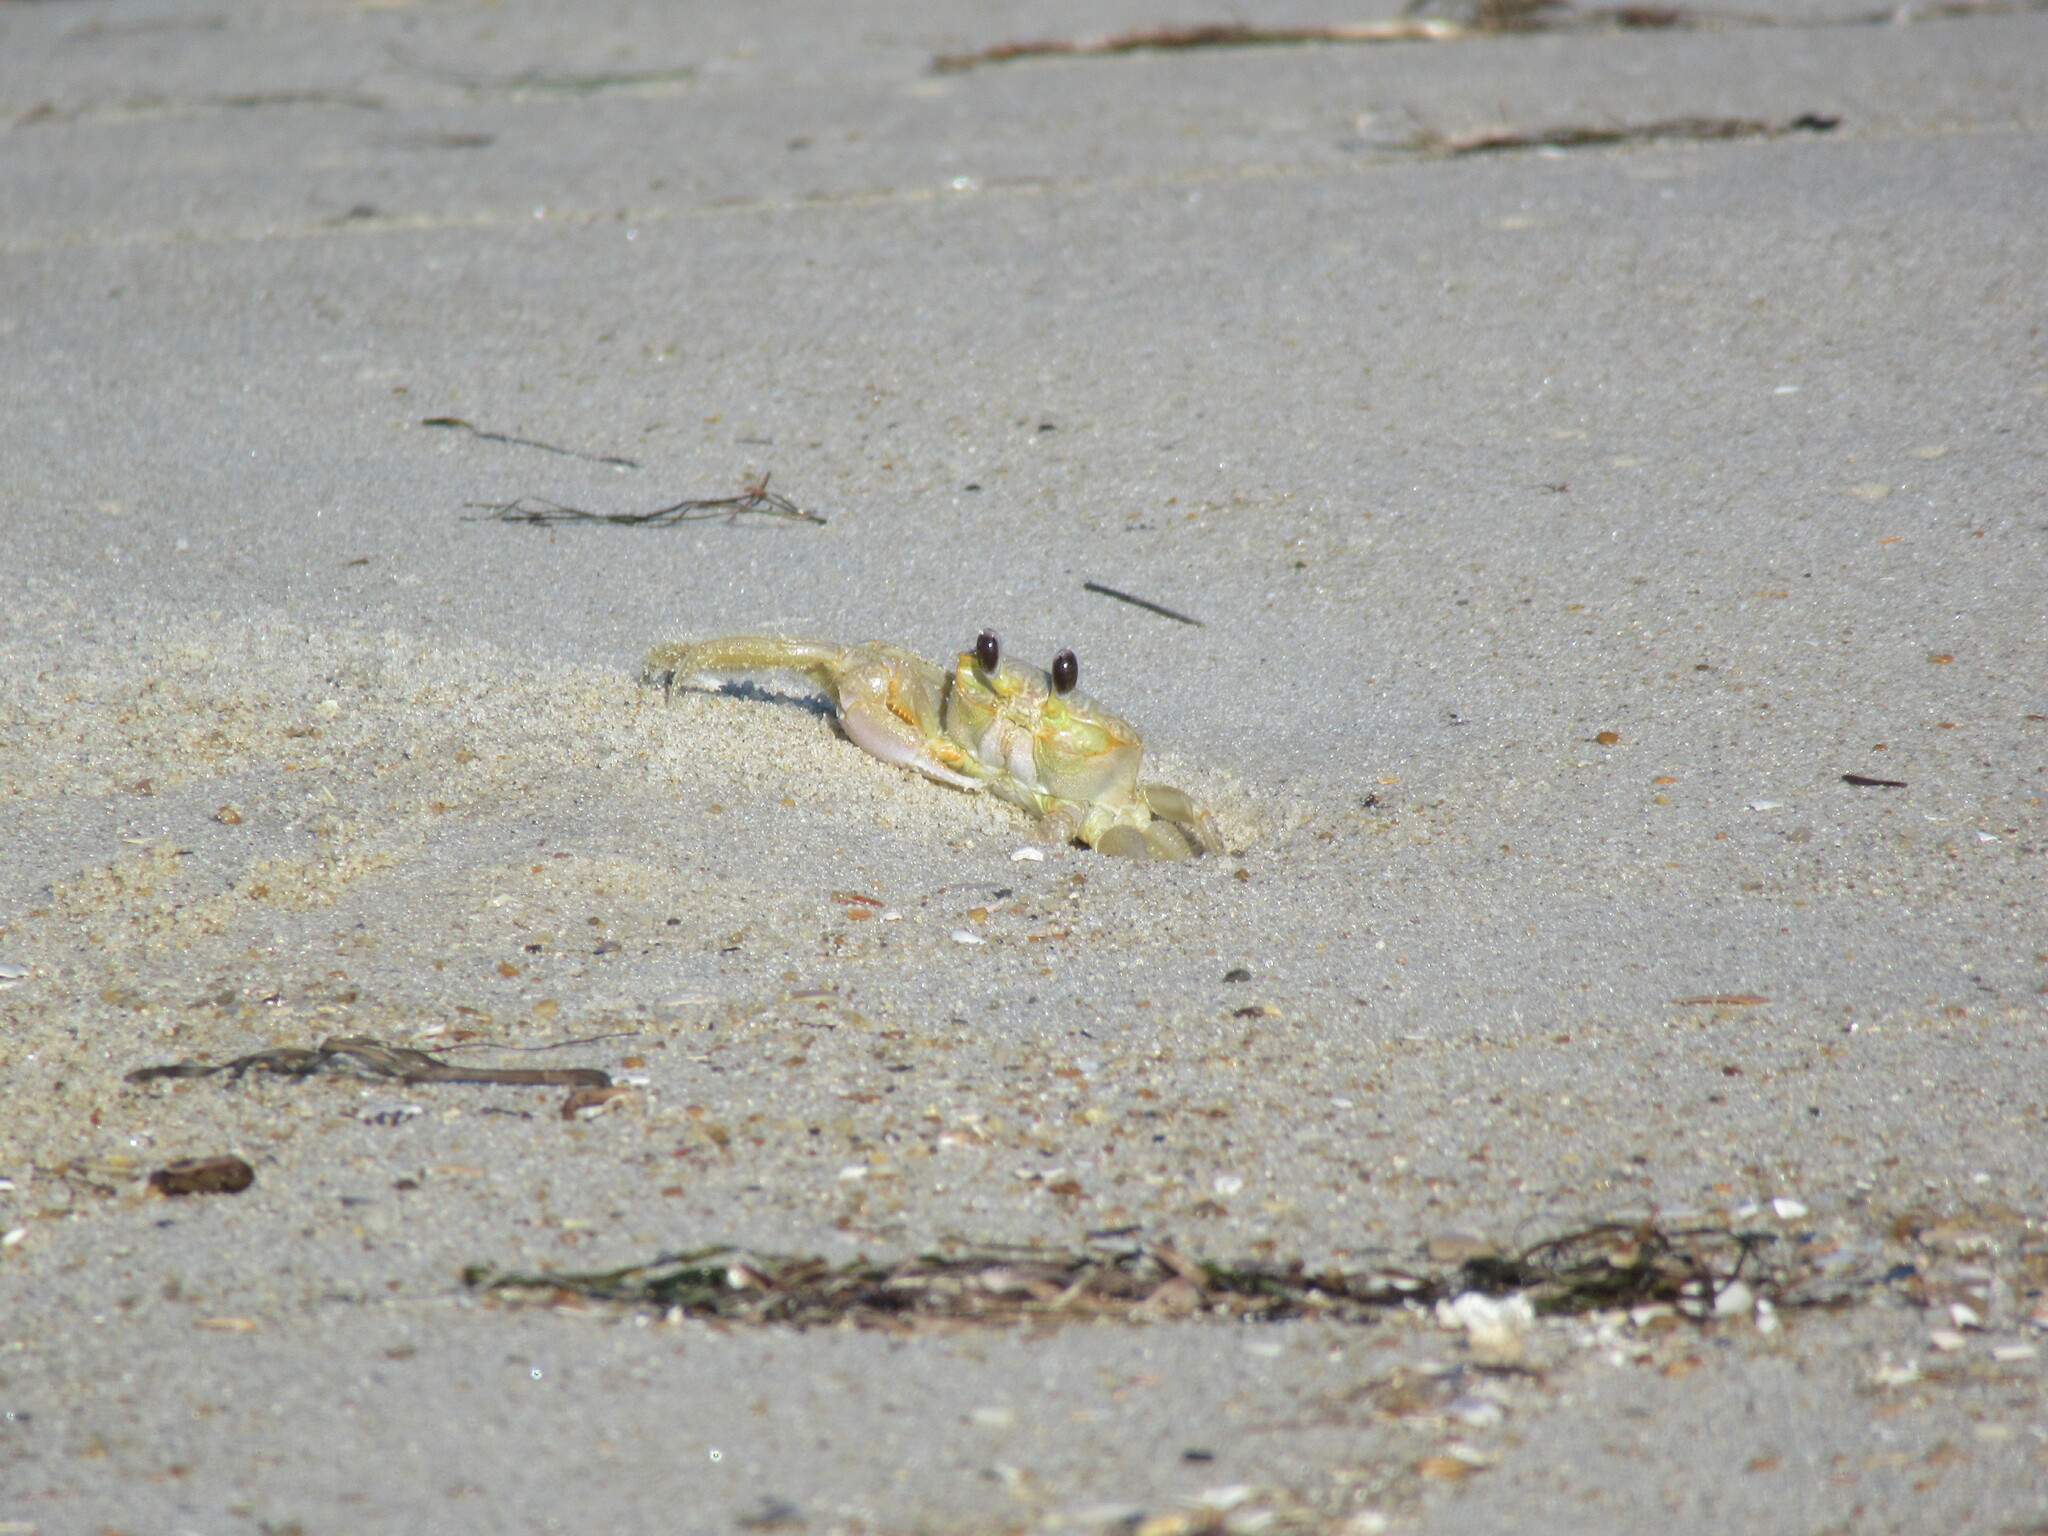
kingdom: Animalia
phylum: Arthropoda
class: Malacostraca
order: Decapoda
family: Ocypodidae
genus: Ocypode
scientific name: Ocypode quadrata
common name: Ghost crab
